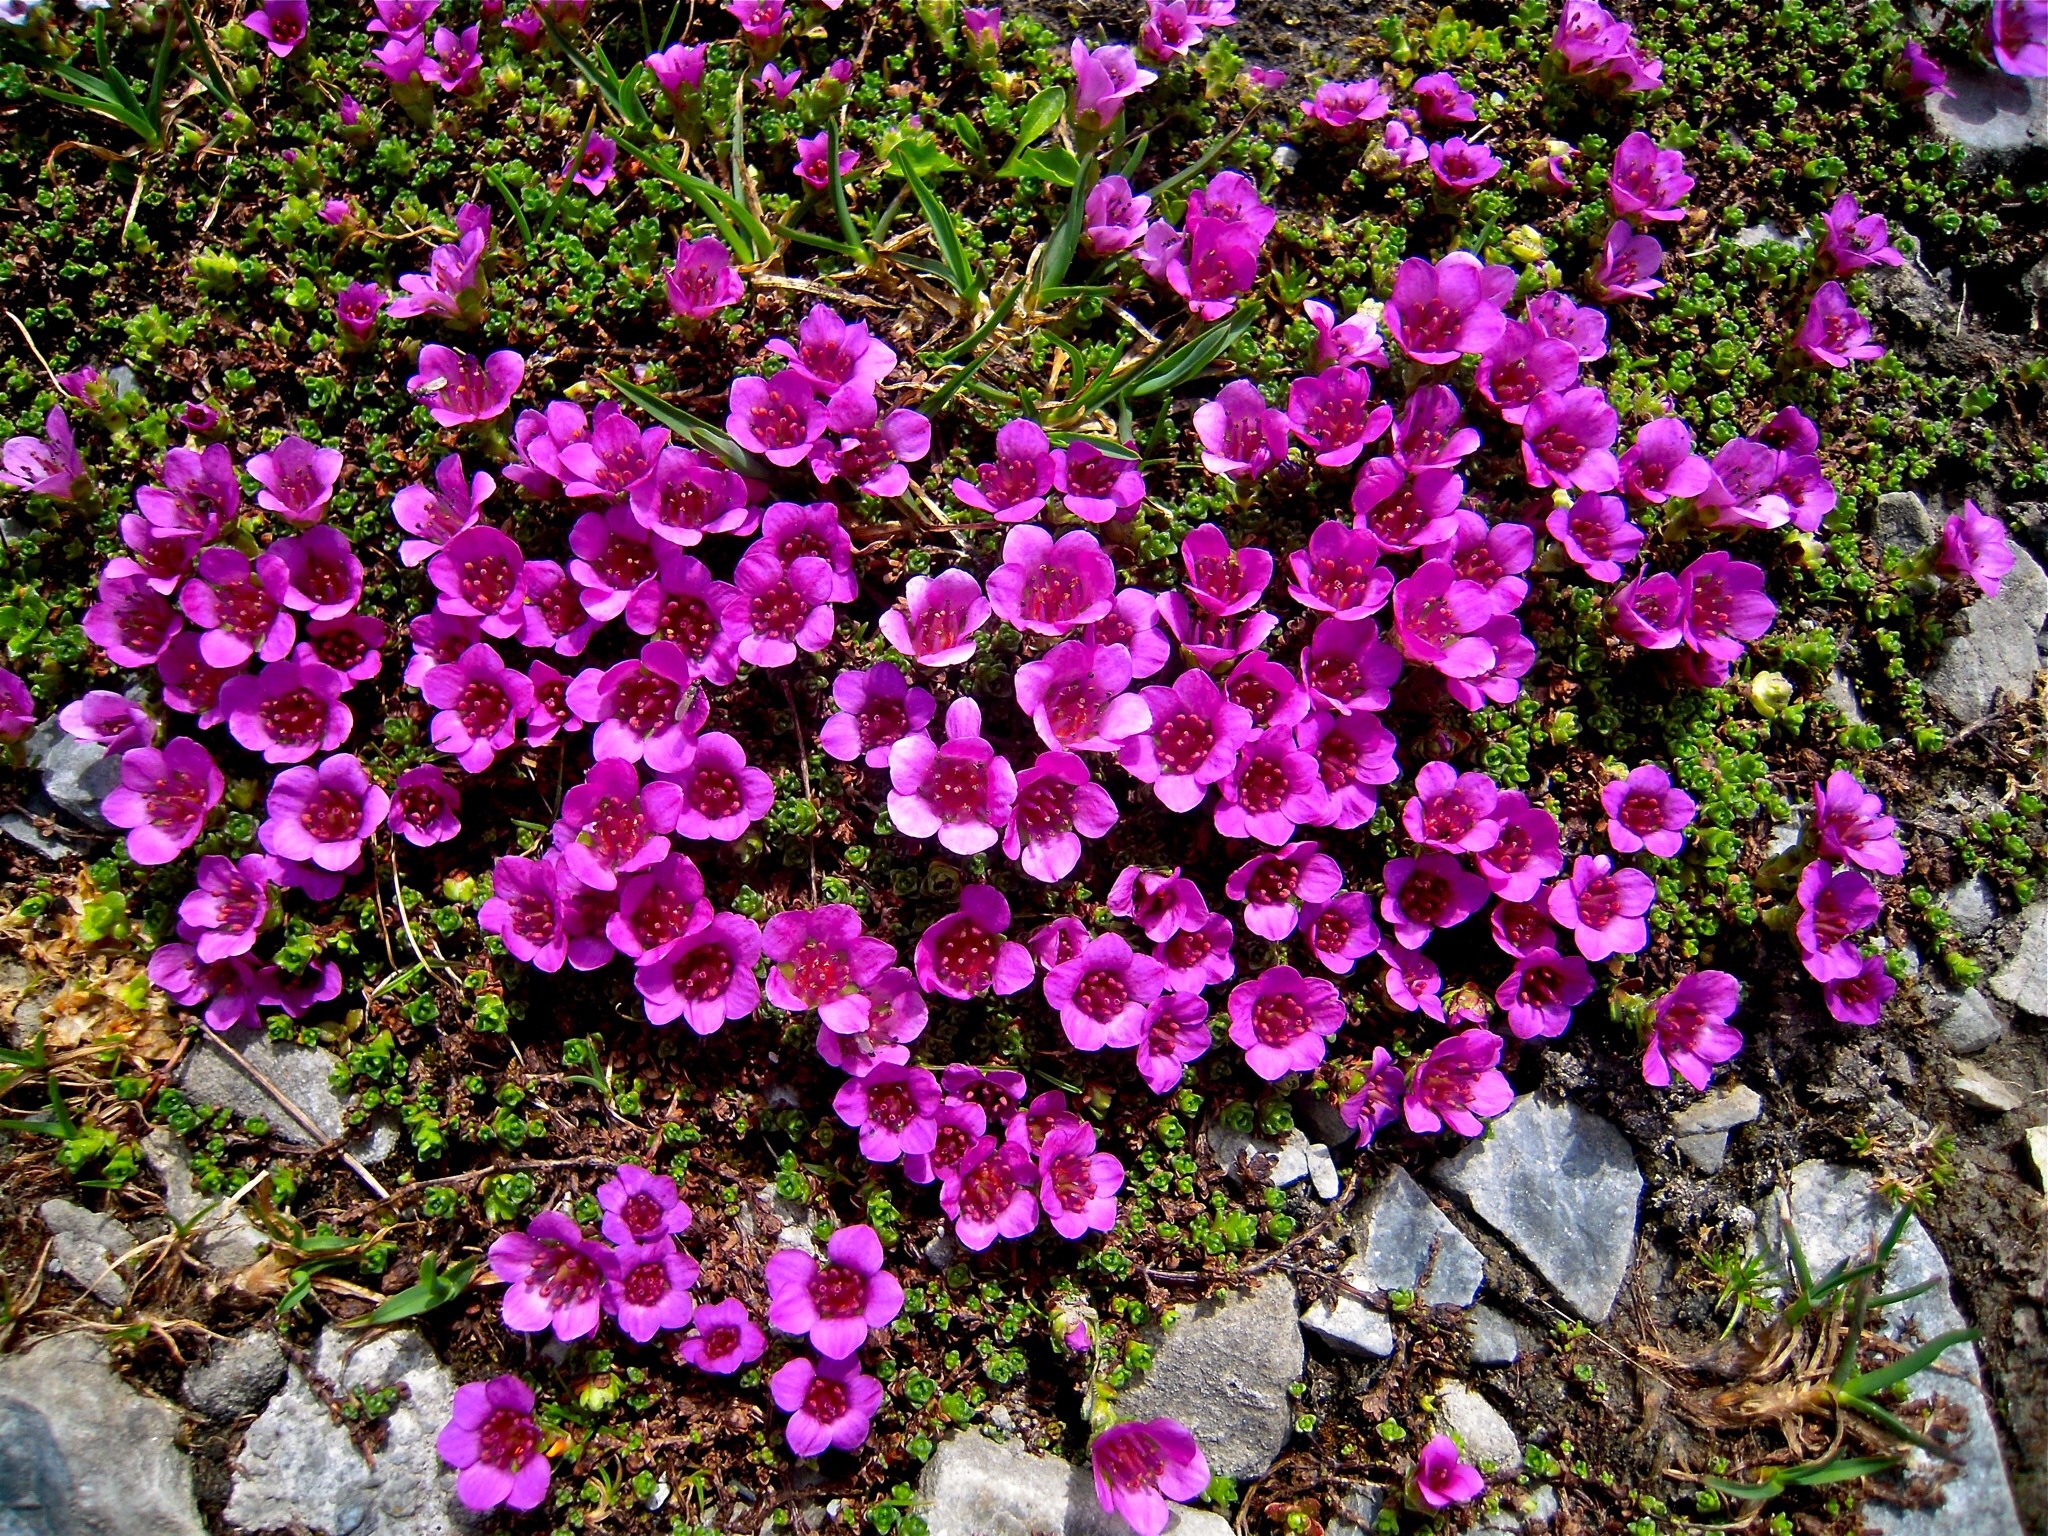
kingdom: Plantae
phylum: Tracheophyta
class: Magnoliopsida
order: Saxifragales
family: Saxifragaceae
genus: Saxifraga
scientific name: Saxifraga oppositifolia
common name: Purple saxifrage
